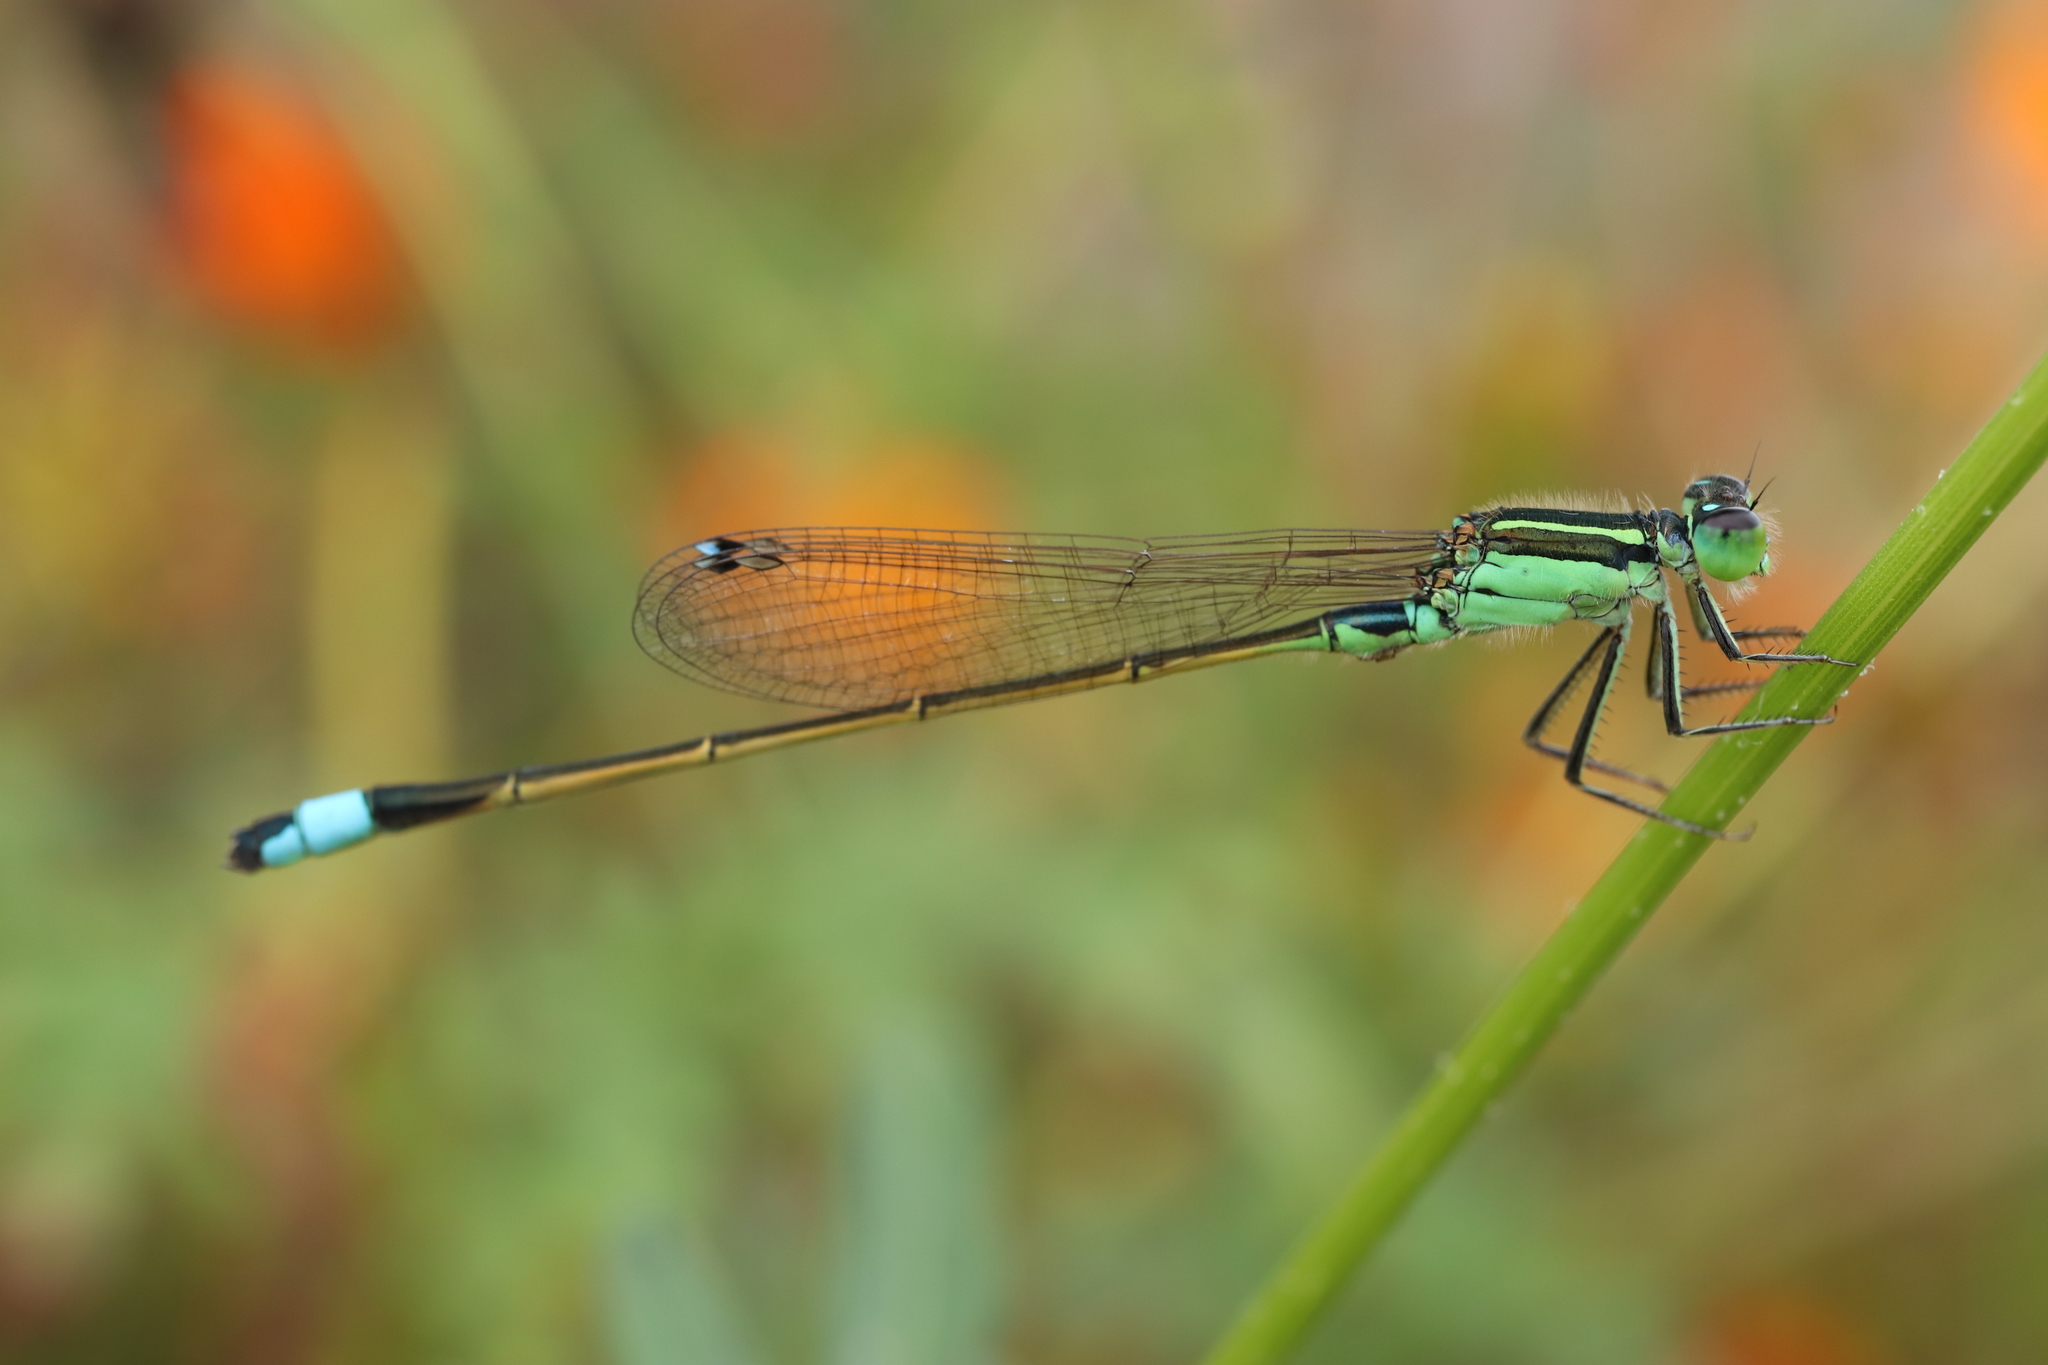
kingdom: Animalia
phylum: Arthropoda
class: Insecta
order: Odonata
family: Coenagrionidae
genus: Ischnura
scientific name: Ischnura senegalensis
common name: Tropical bluetail
